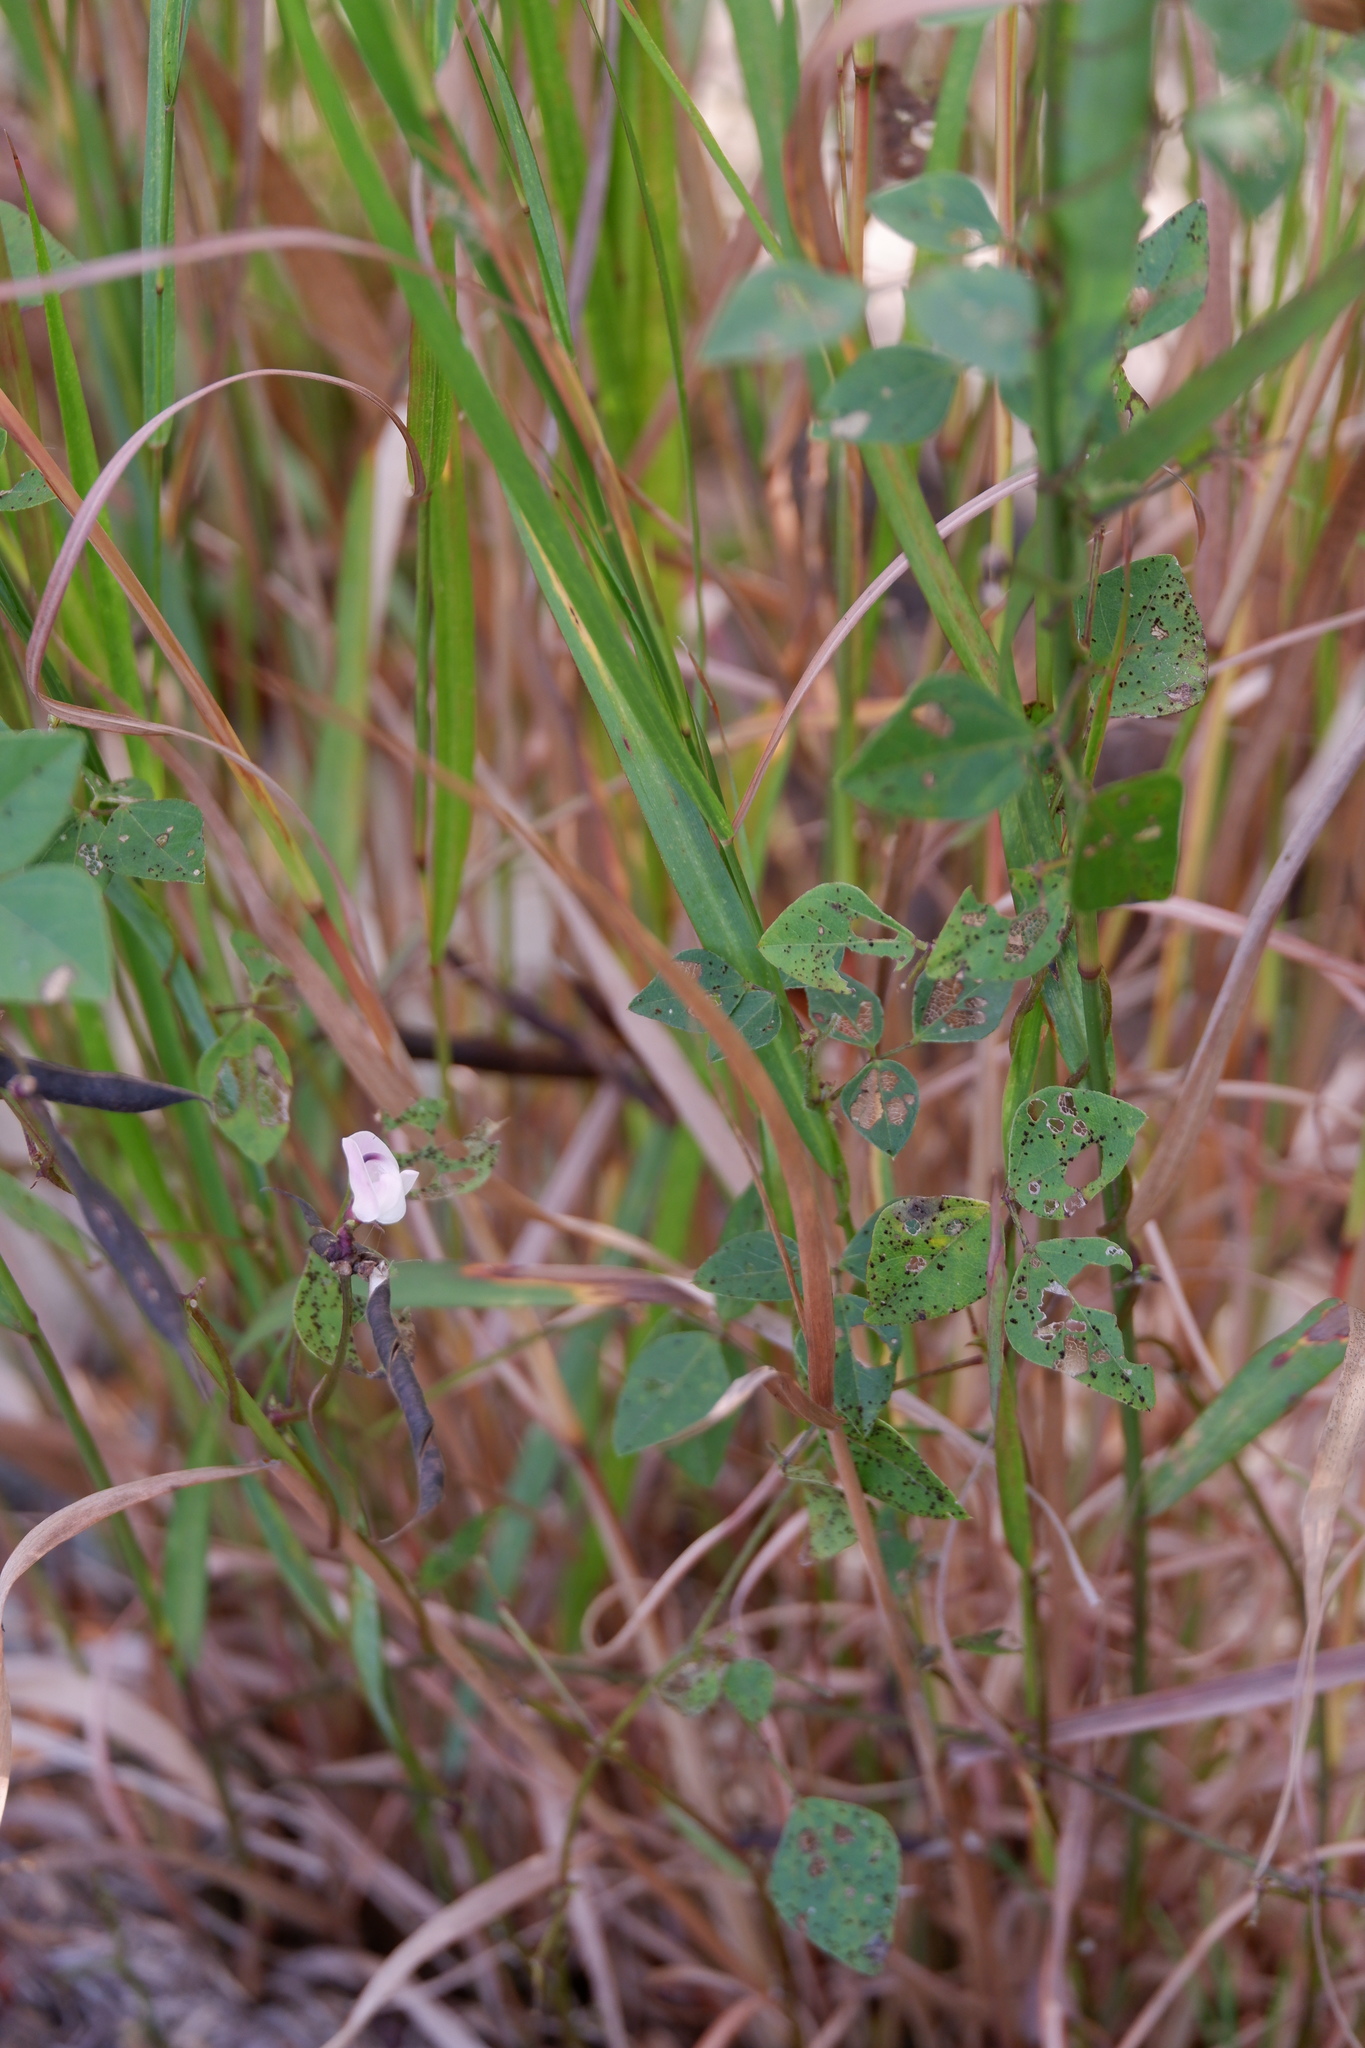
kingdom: Plantae
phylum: Tracheophyta
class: Magnoliopsida
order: Fabales
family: Fabaceae
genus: Strophostyles
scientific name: Strophostyles helvola
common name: Trailing wild bean
